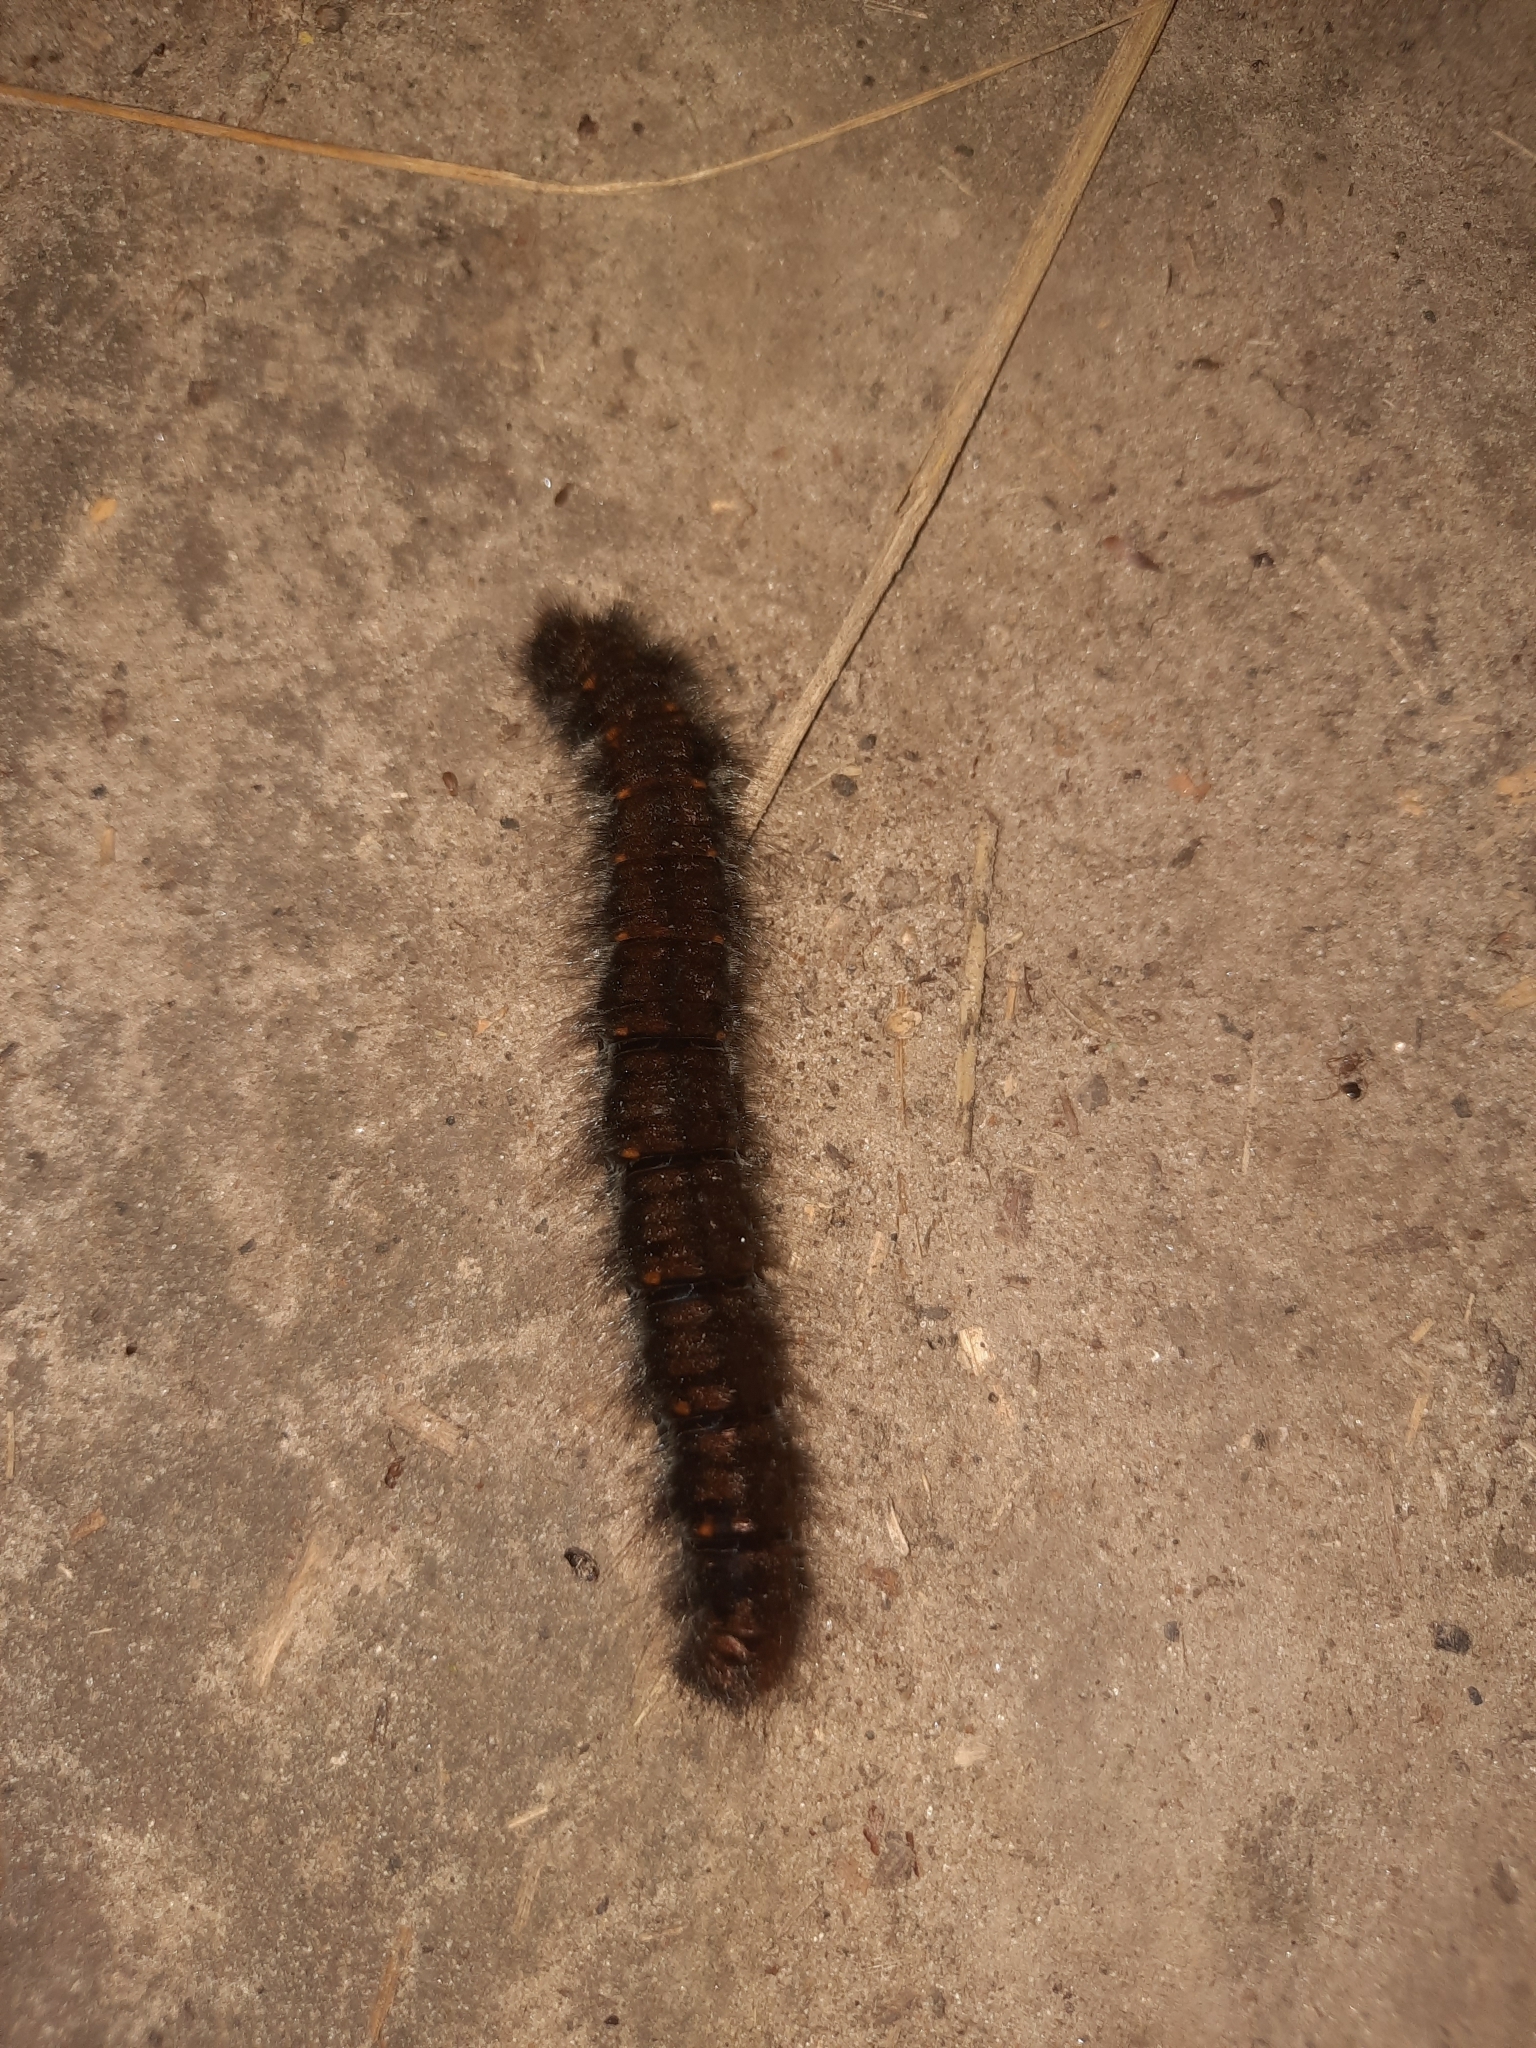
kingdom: Animalia
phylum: Arthropoda
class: Insecta
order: Lepidoptera
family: Lasiocampidae
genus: Macrothylacia
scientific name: Macrothylacia rubi
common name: Fox moth
